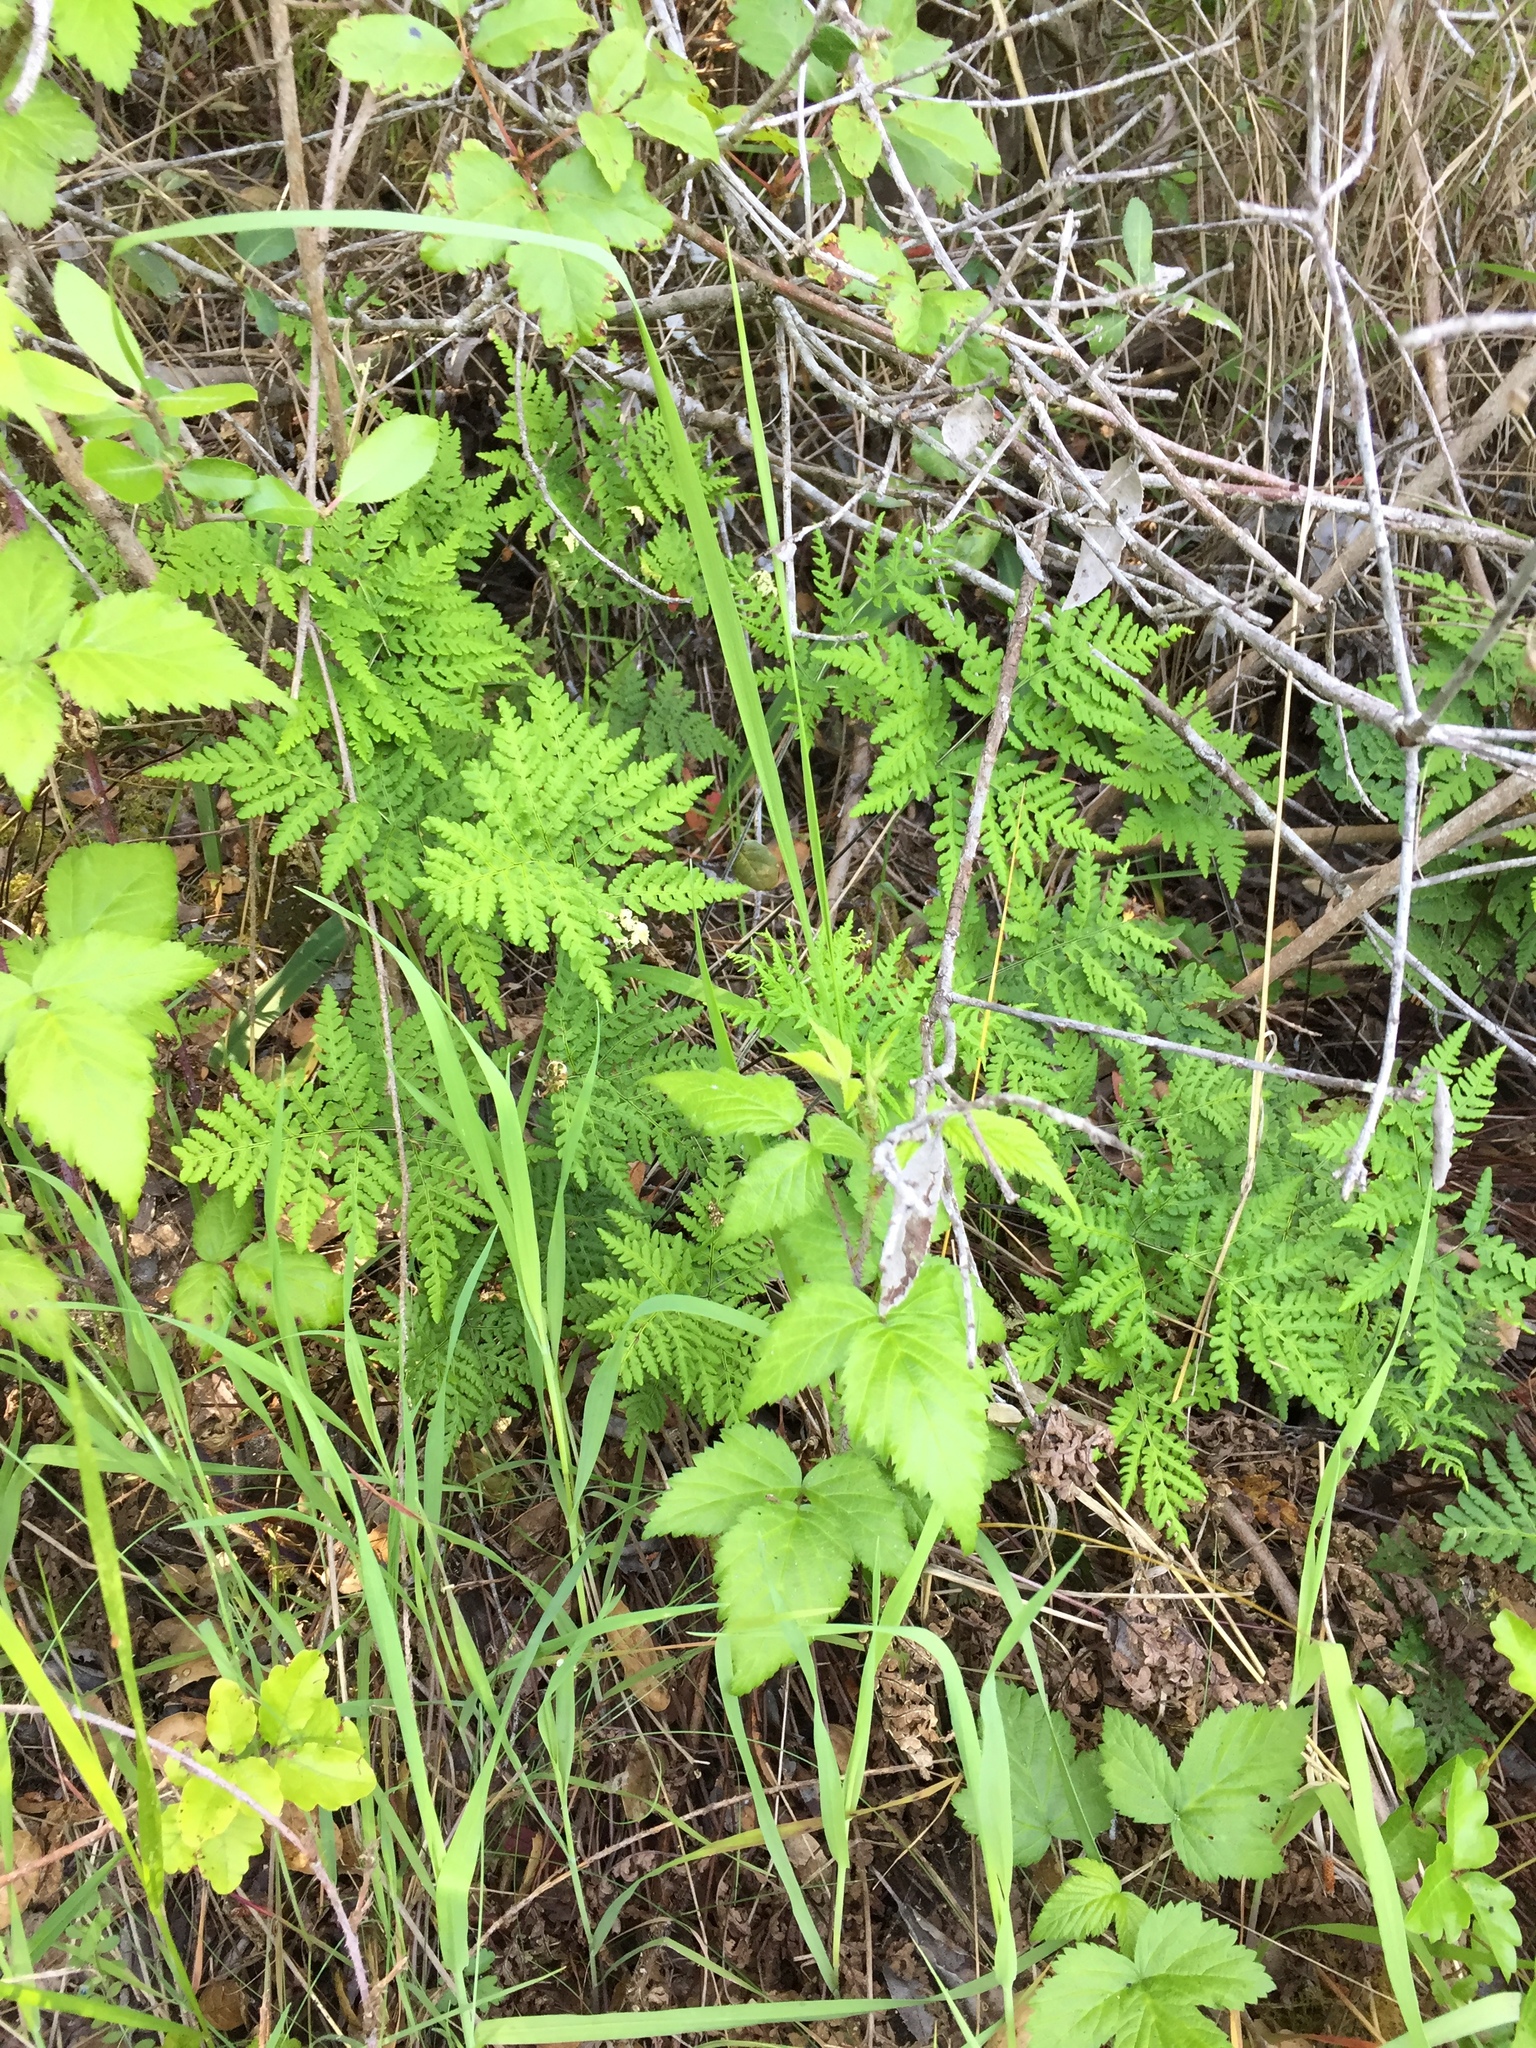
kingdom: Plantae
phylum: Tracheophyta
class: Polypodiopsida
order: Polypodiales
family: Pteridaceae
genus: Pentagramma
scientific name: Pentagramma triangularis
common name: Gold fern
